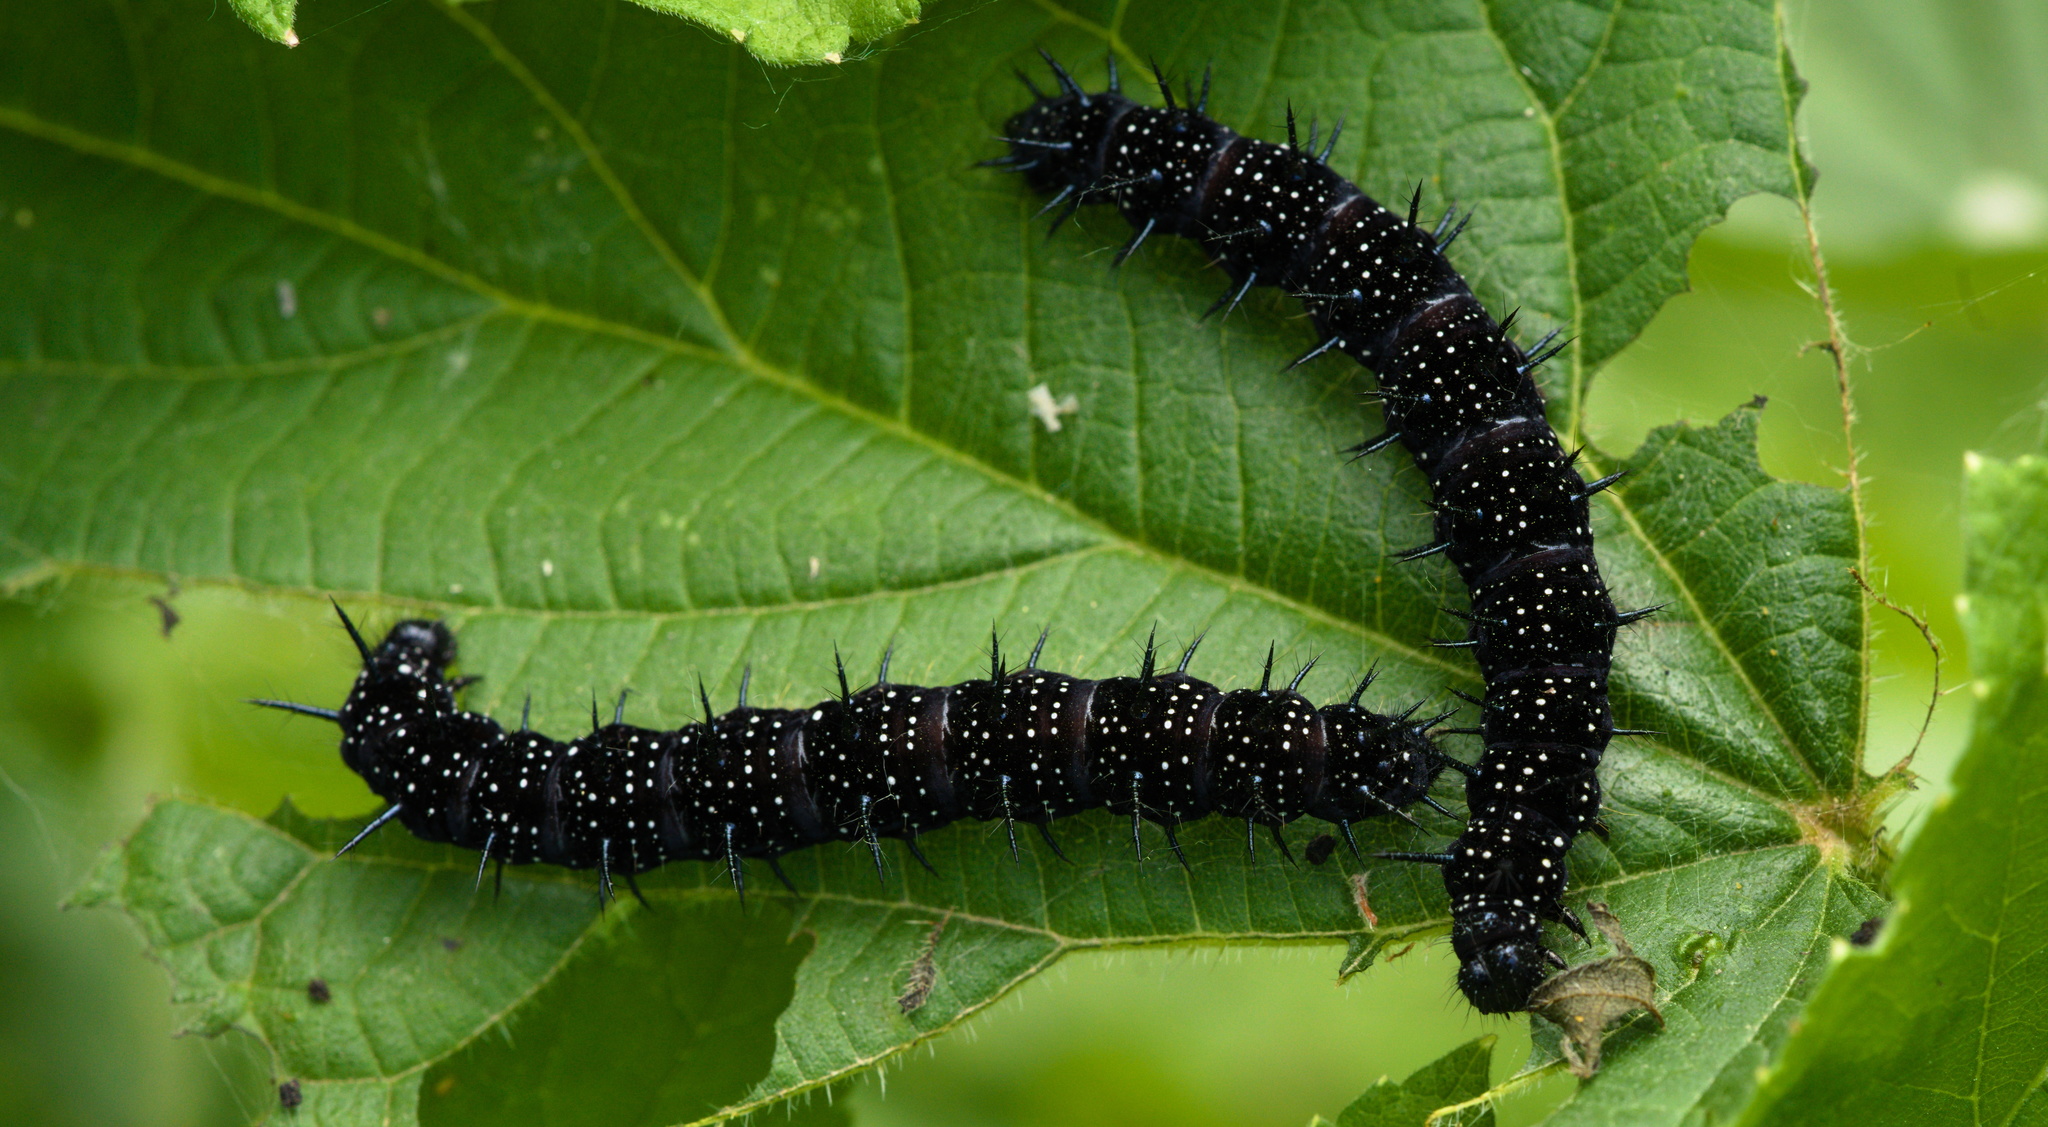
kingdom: Animalia
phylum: Arthropoda
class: Insecta
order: Lepidoptera
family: Nymphalidae
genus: Aglais
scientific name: Aglais io
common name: Peacock
